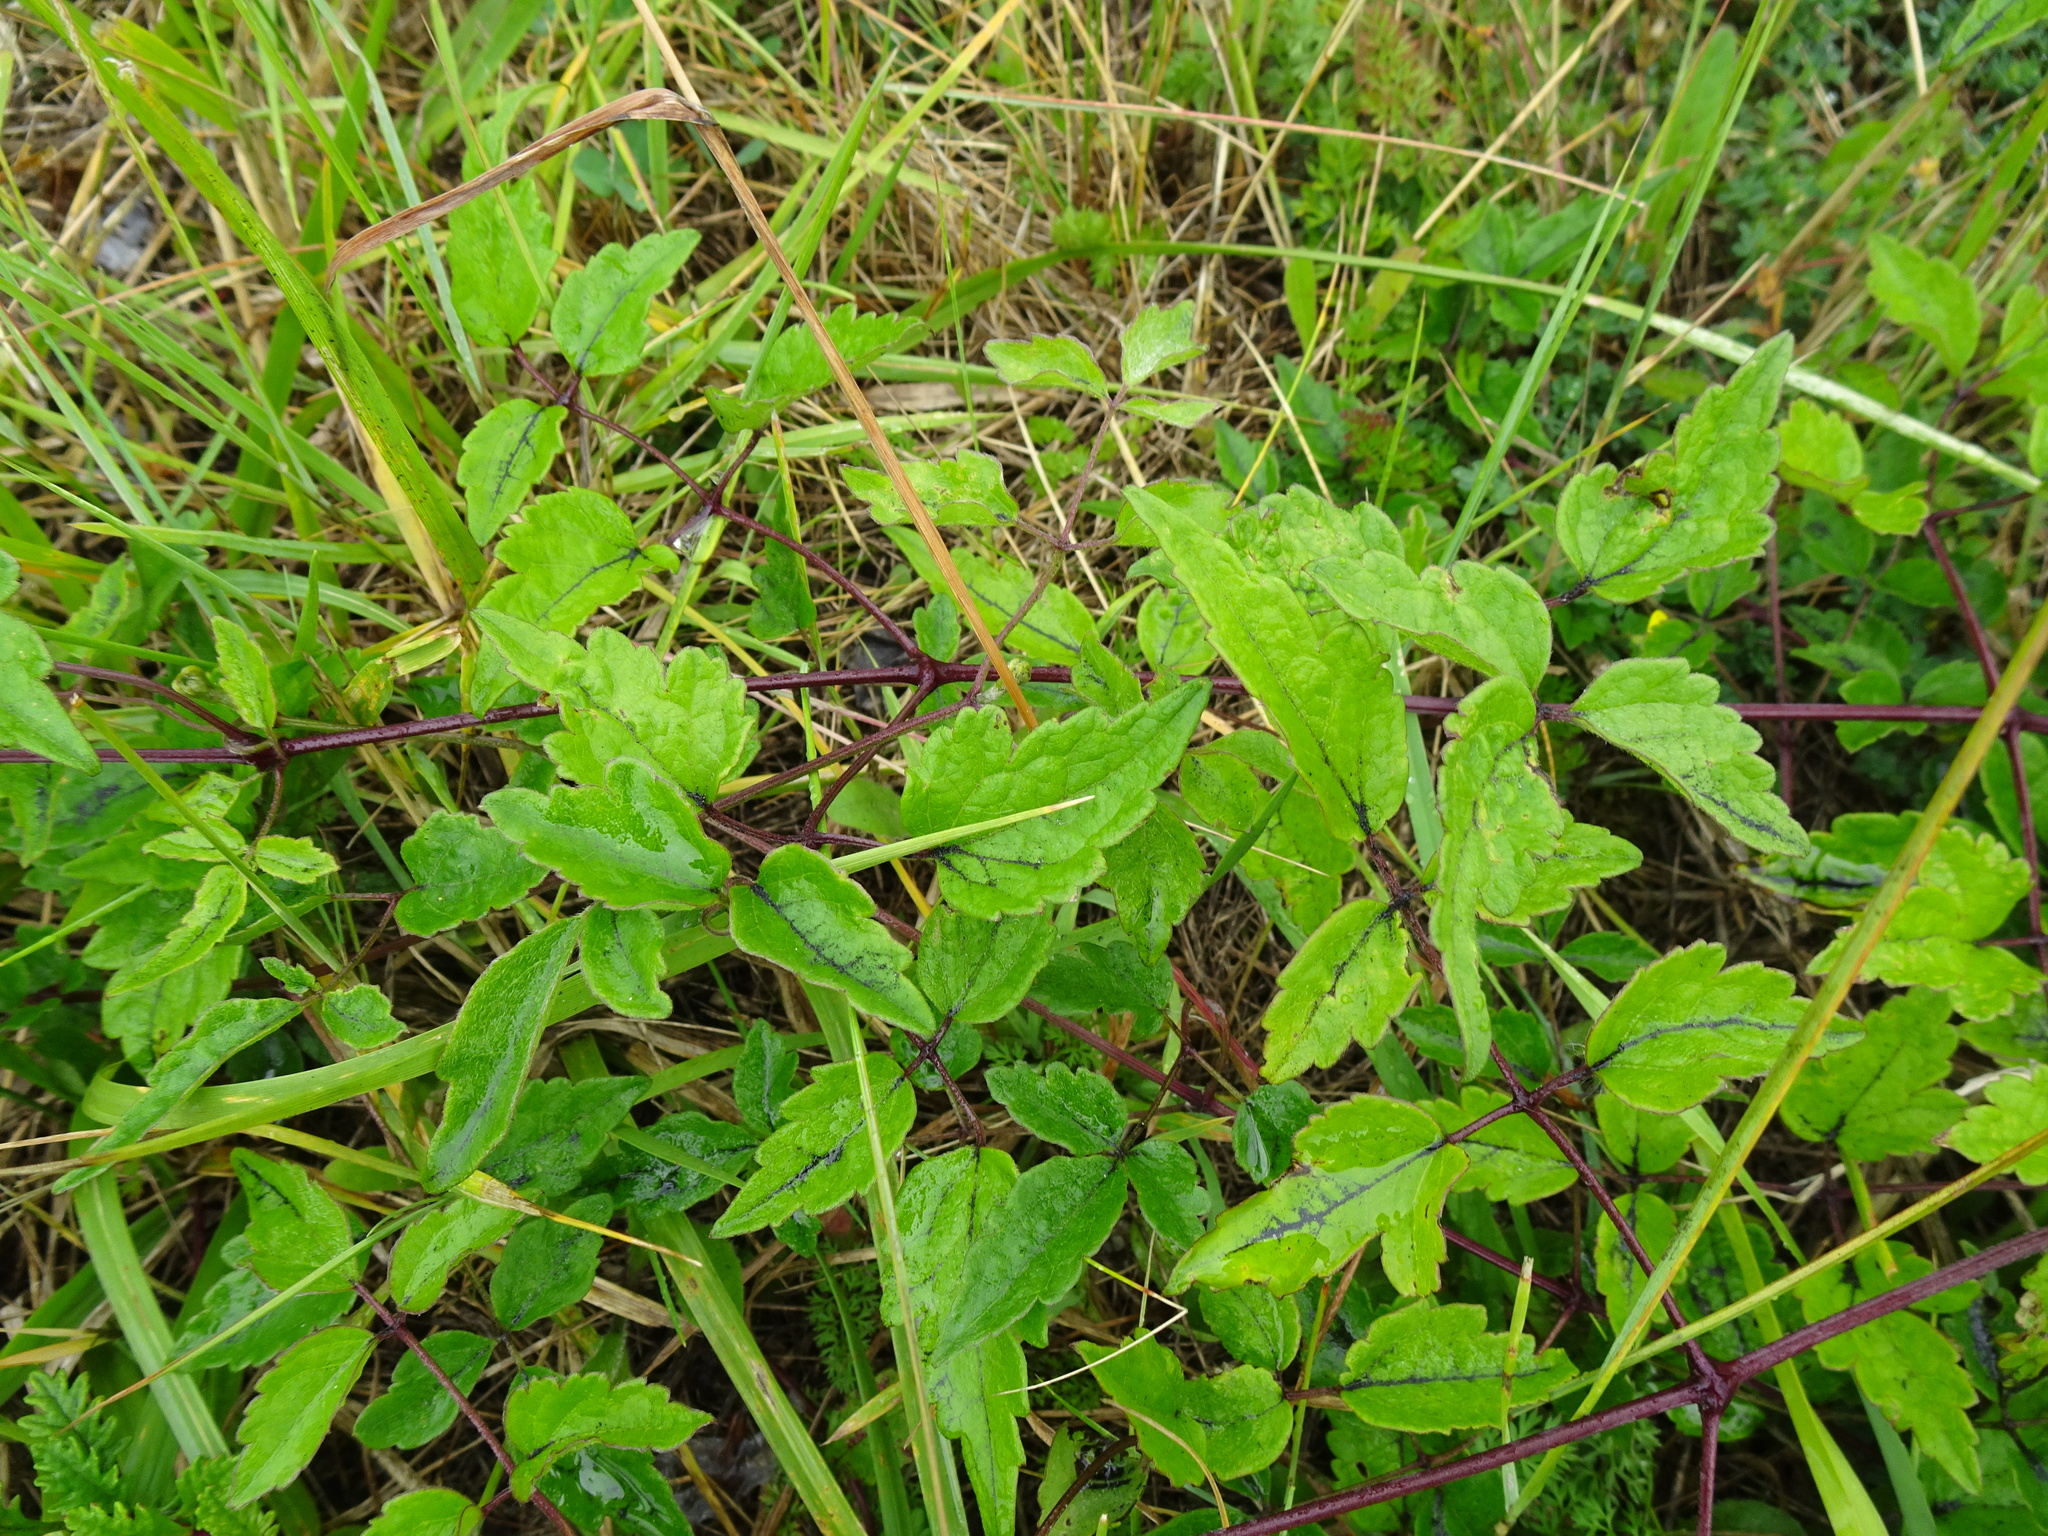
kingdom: Plantae
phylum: Tracheophyta
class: Magnoliopsida
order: Ranunculales
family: Ranunculaceae
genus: Clematis
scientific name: Clematis vitalba
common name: Evergreen clematis
